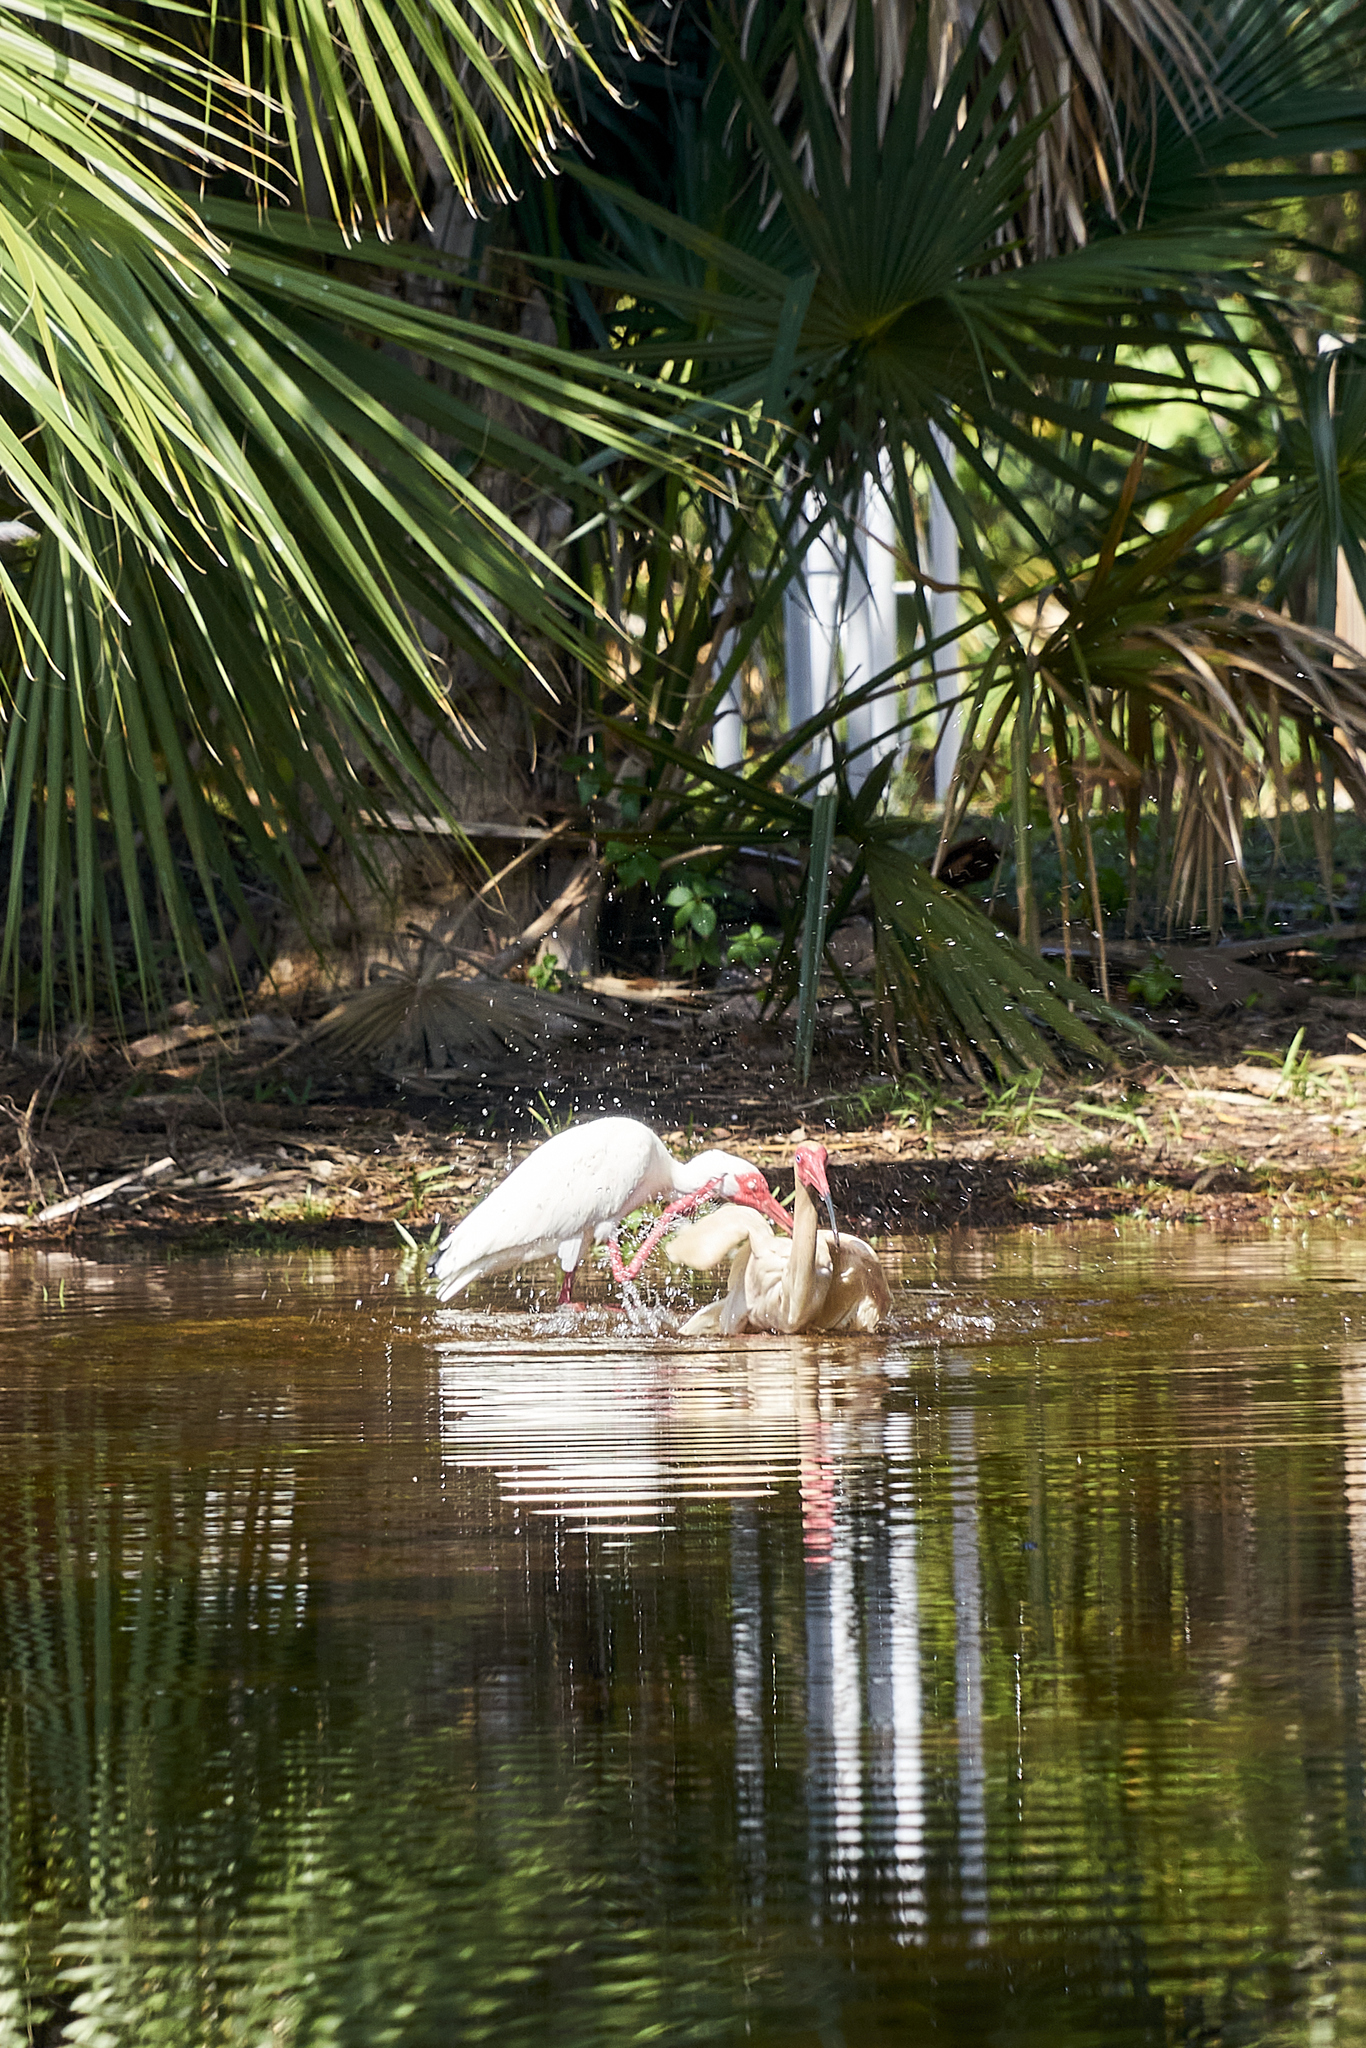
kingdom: Animalia
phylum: Chordata
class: Aves
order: Pelecaniformes
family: Threskiornithidae
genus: Eudocimus
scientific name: Eudocimus albus
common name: White ibis
